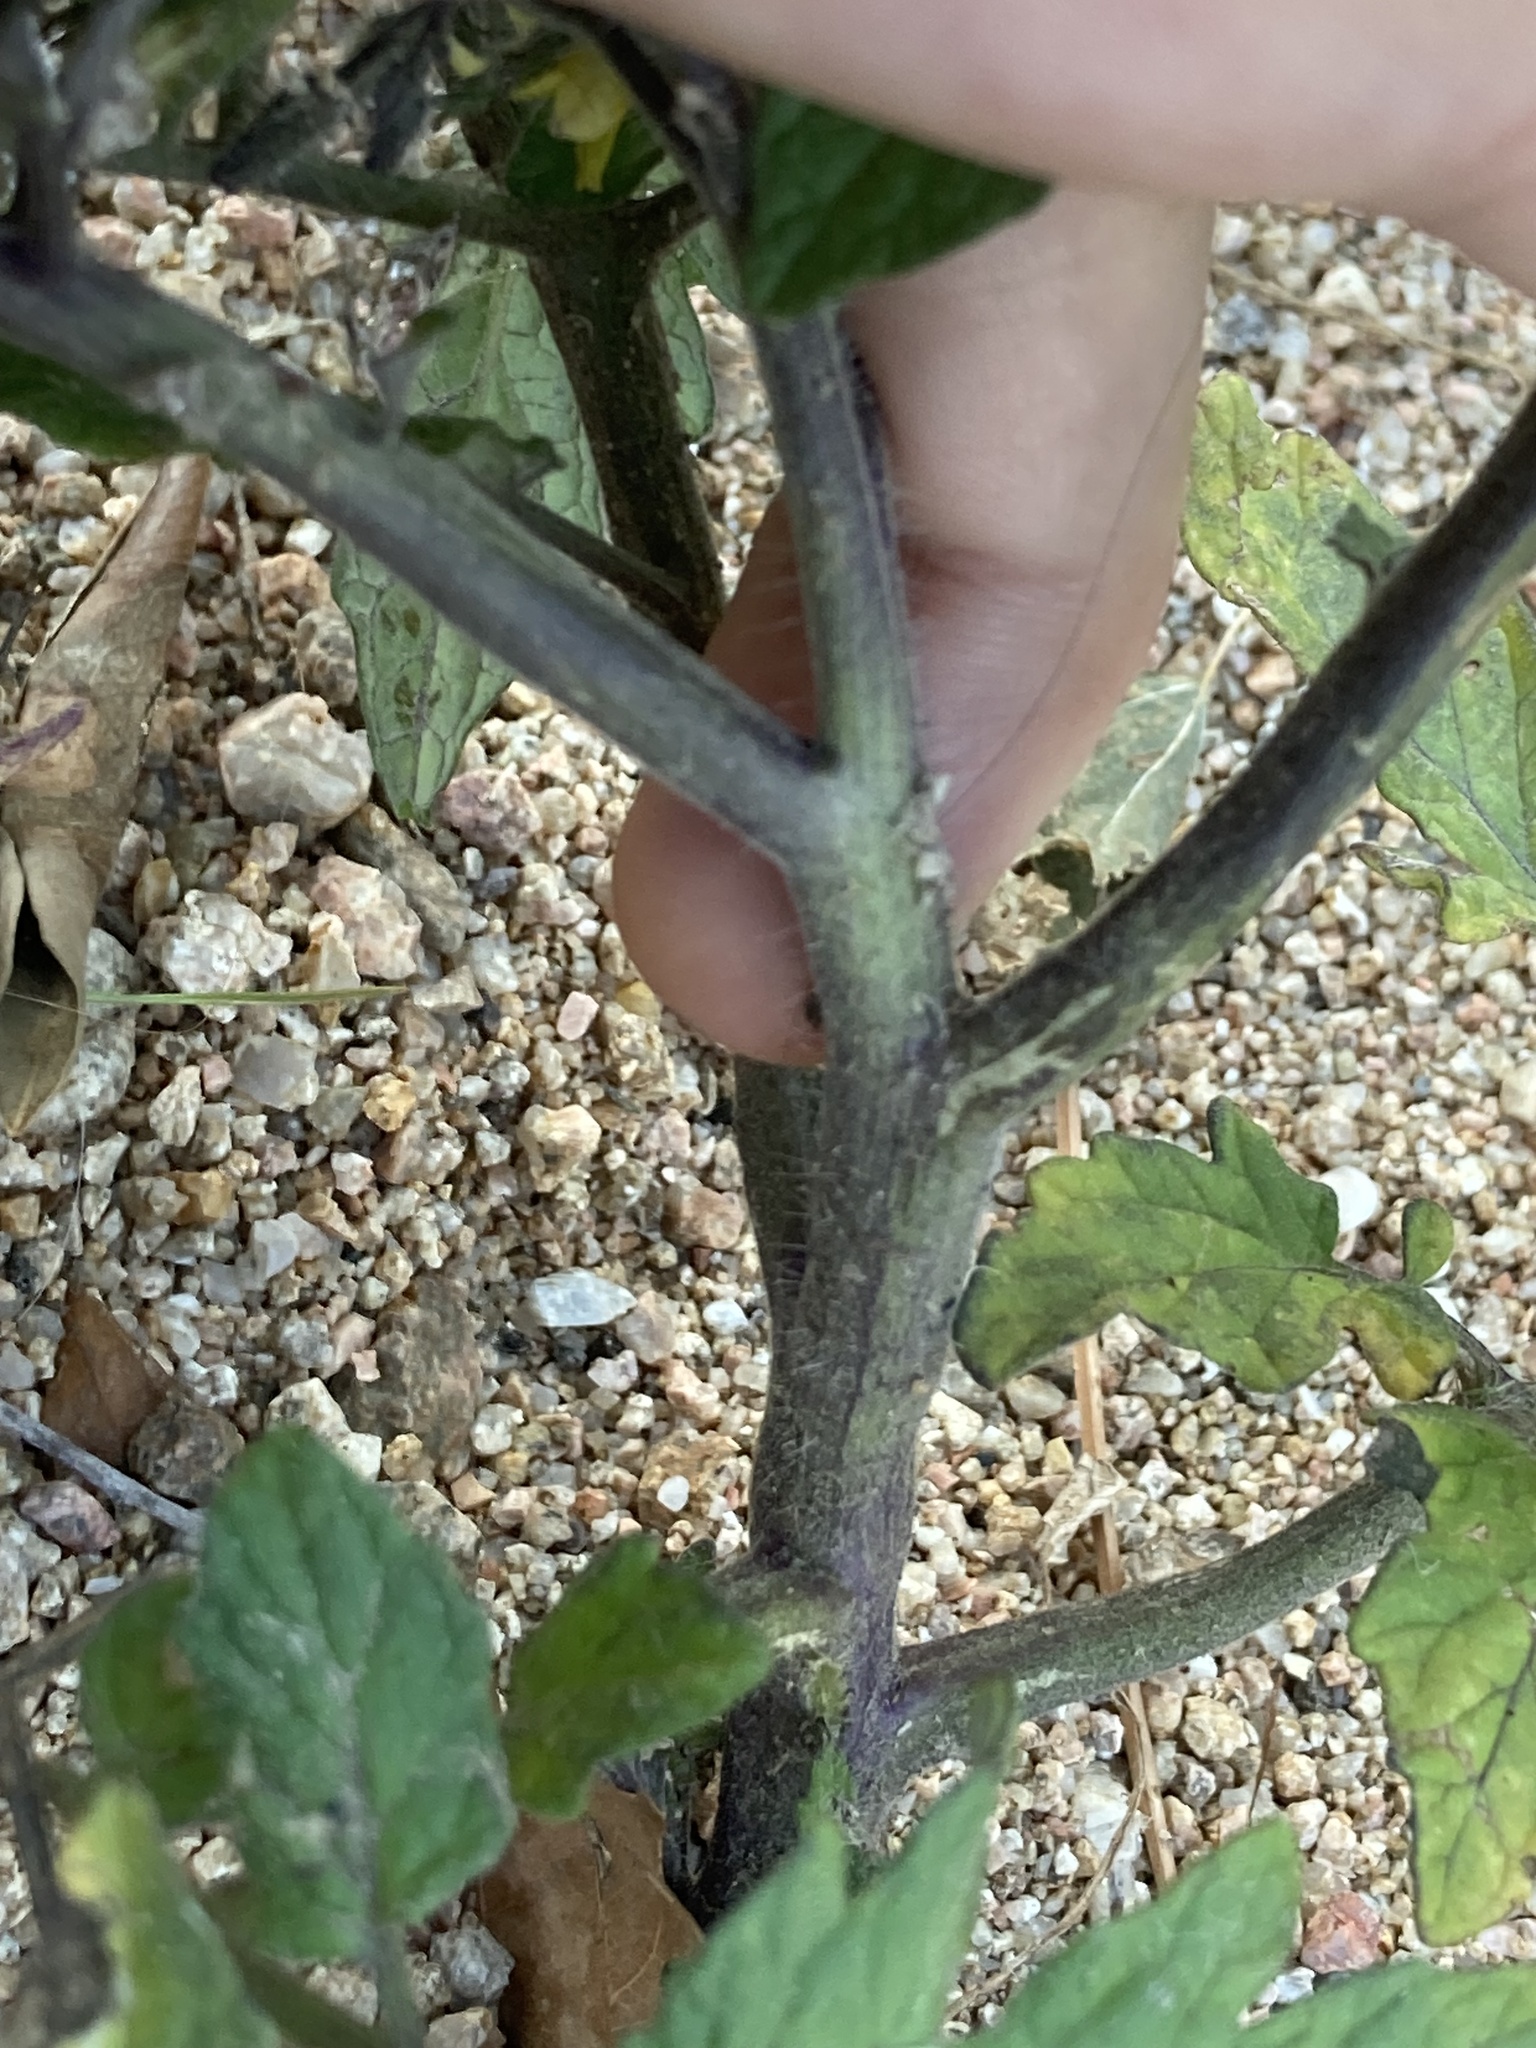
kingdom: Plantae
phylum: Tracheophyta
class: Magnoliopsida
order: Solanales
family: Solanaceae
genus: Solanum
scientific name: Solanum lycopersicum
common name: Garden tomato
